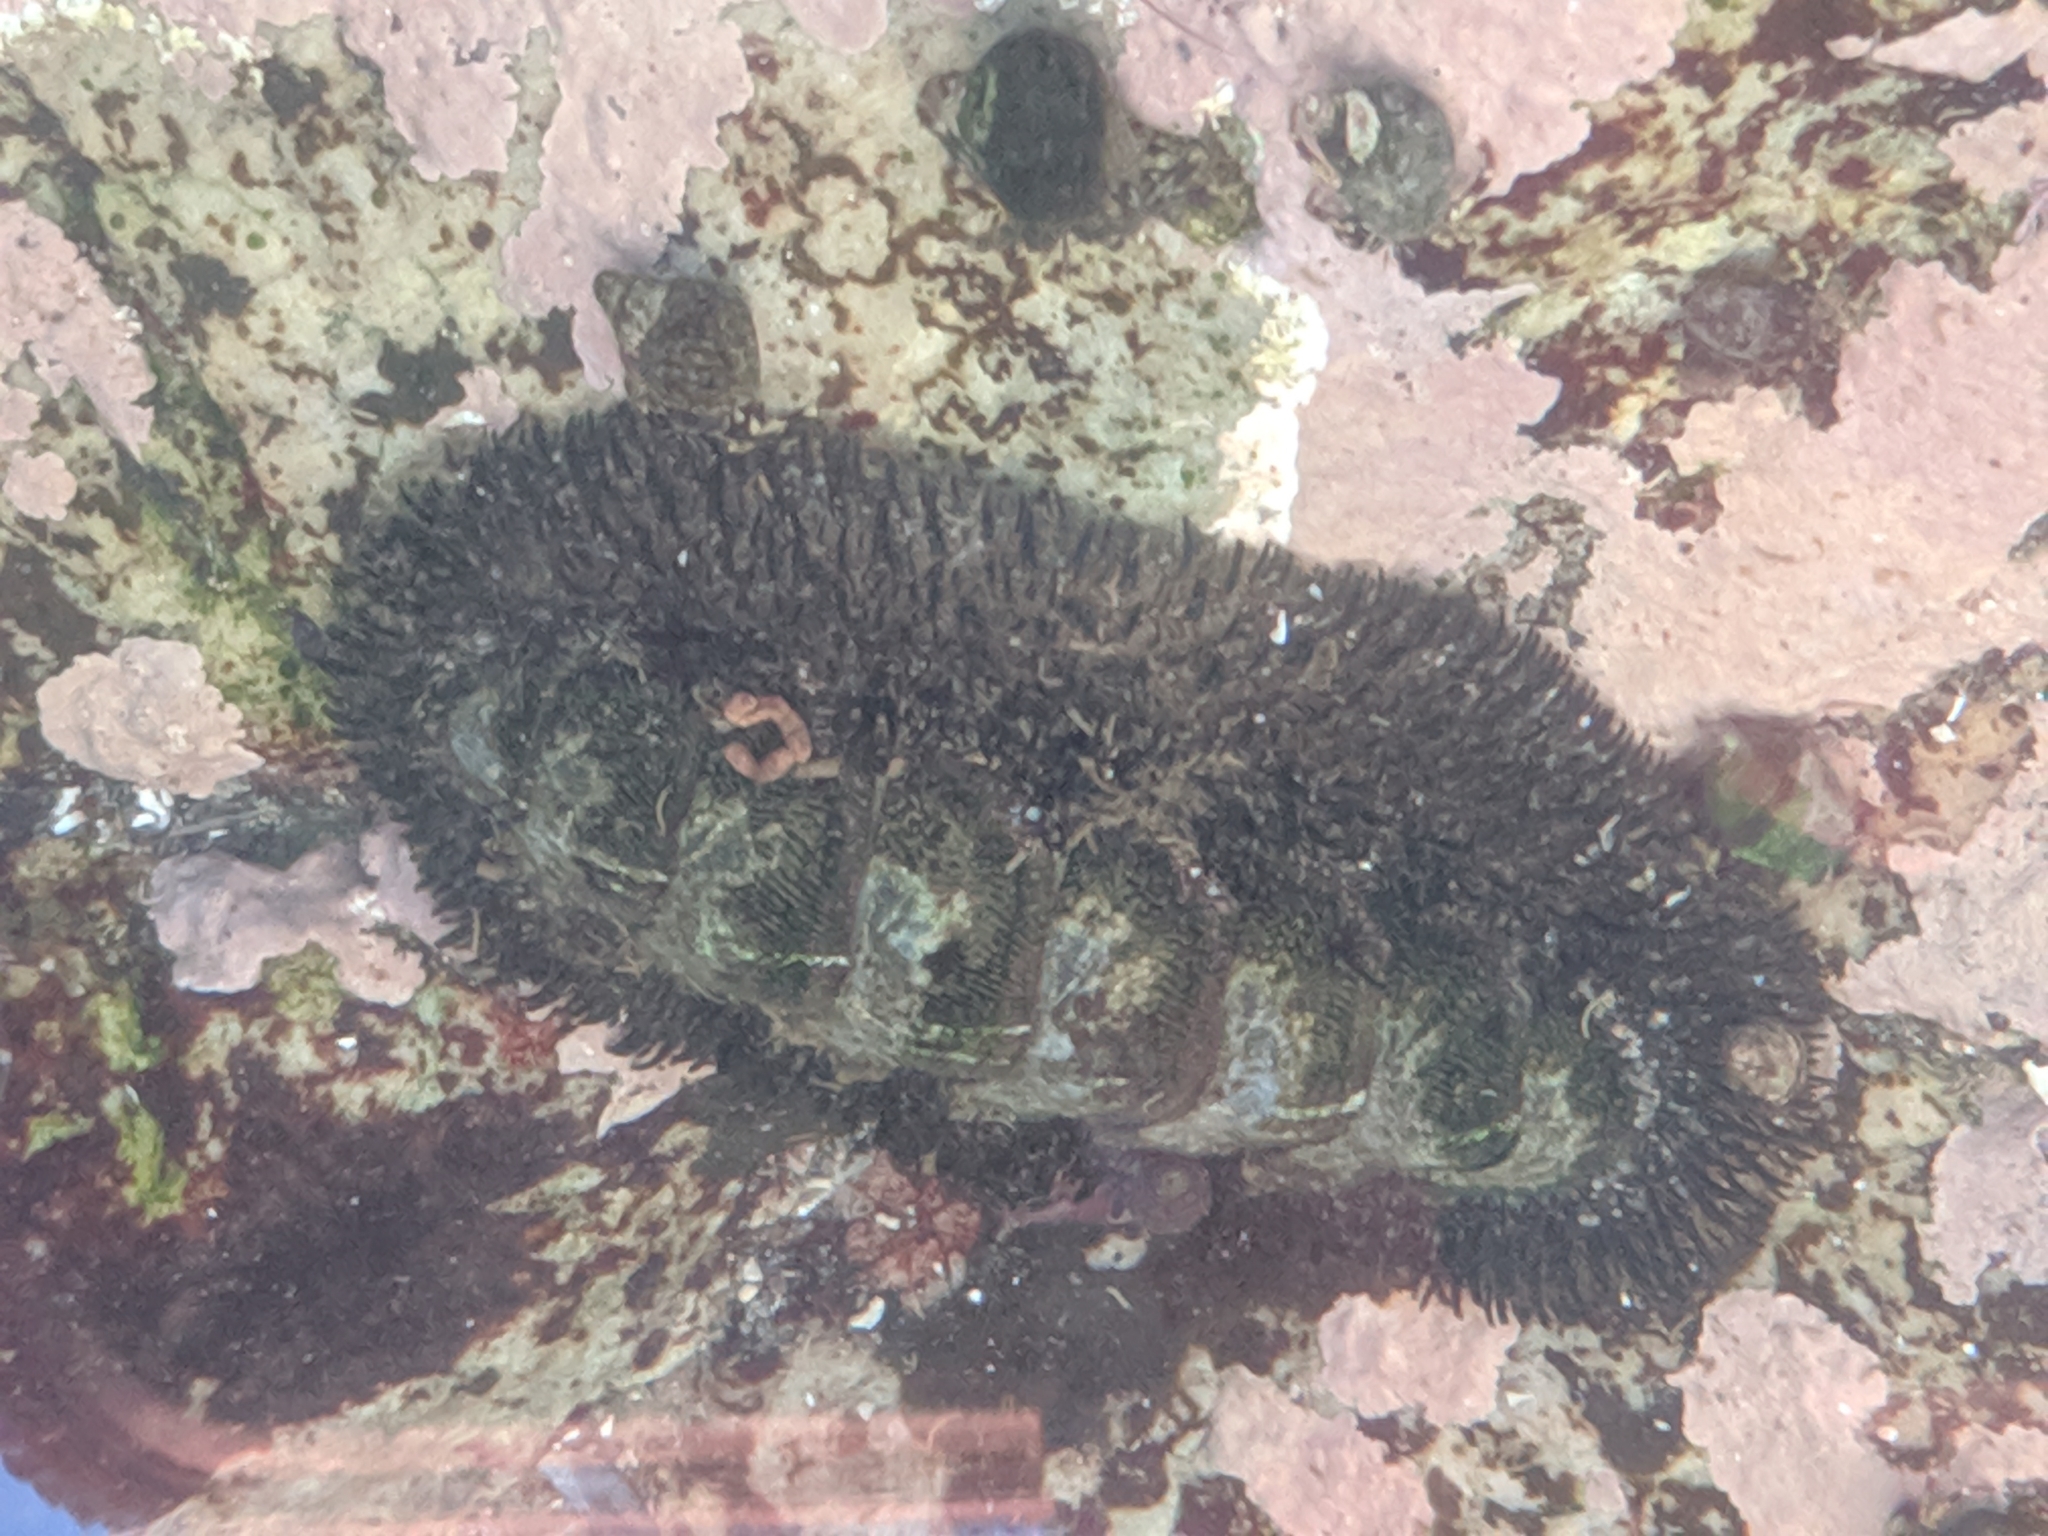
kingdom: Animalia
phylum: Mollusca
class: Polyplacophora
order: Chitonida
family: Mopaliidae
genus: Mopalia
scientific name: Mopalia muscosa
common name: Mossy chiton
